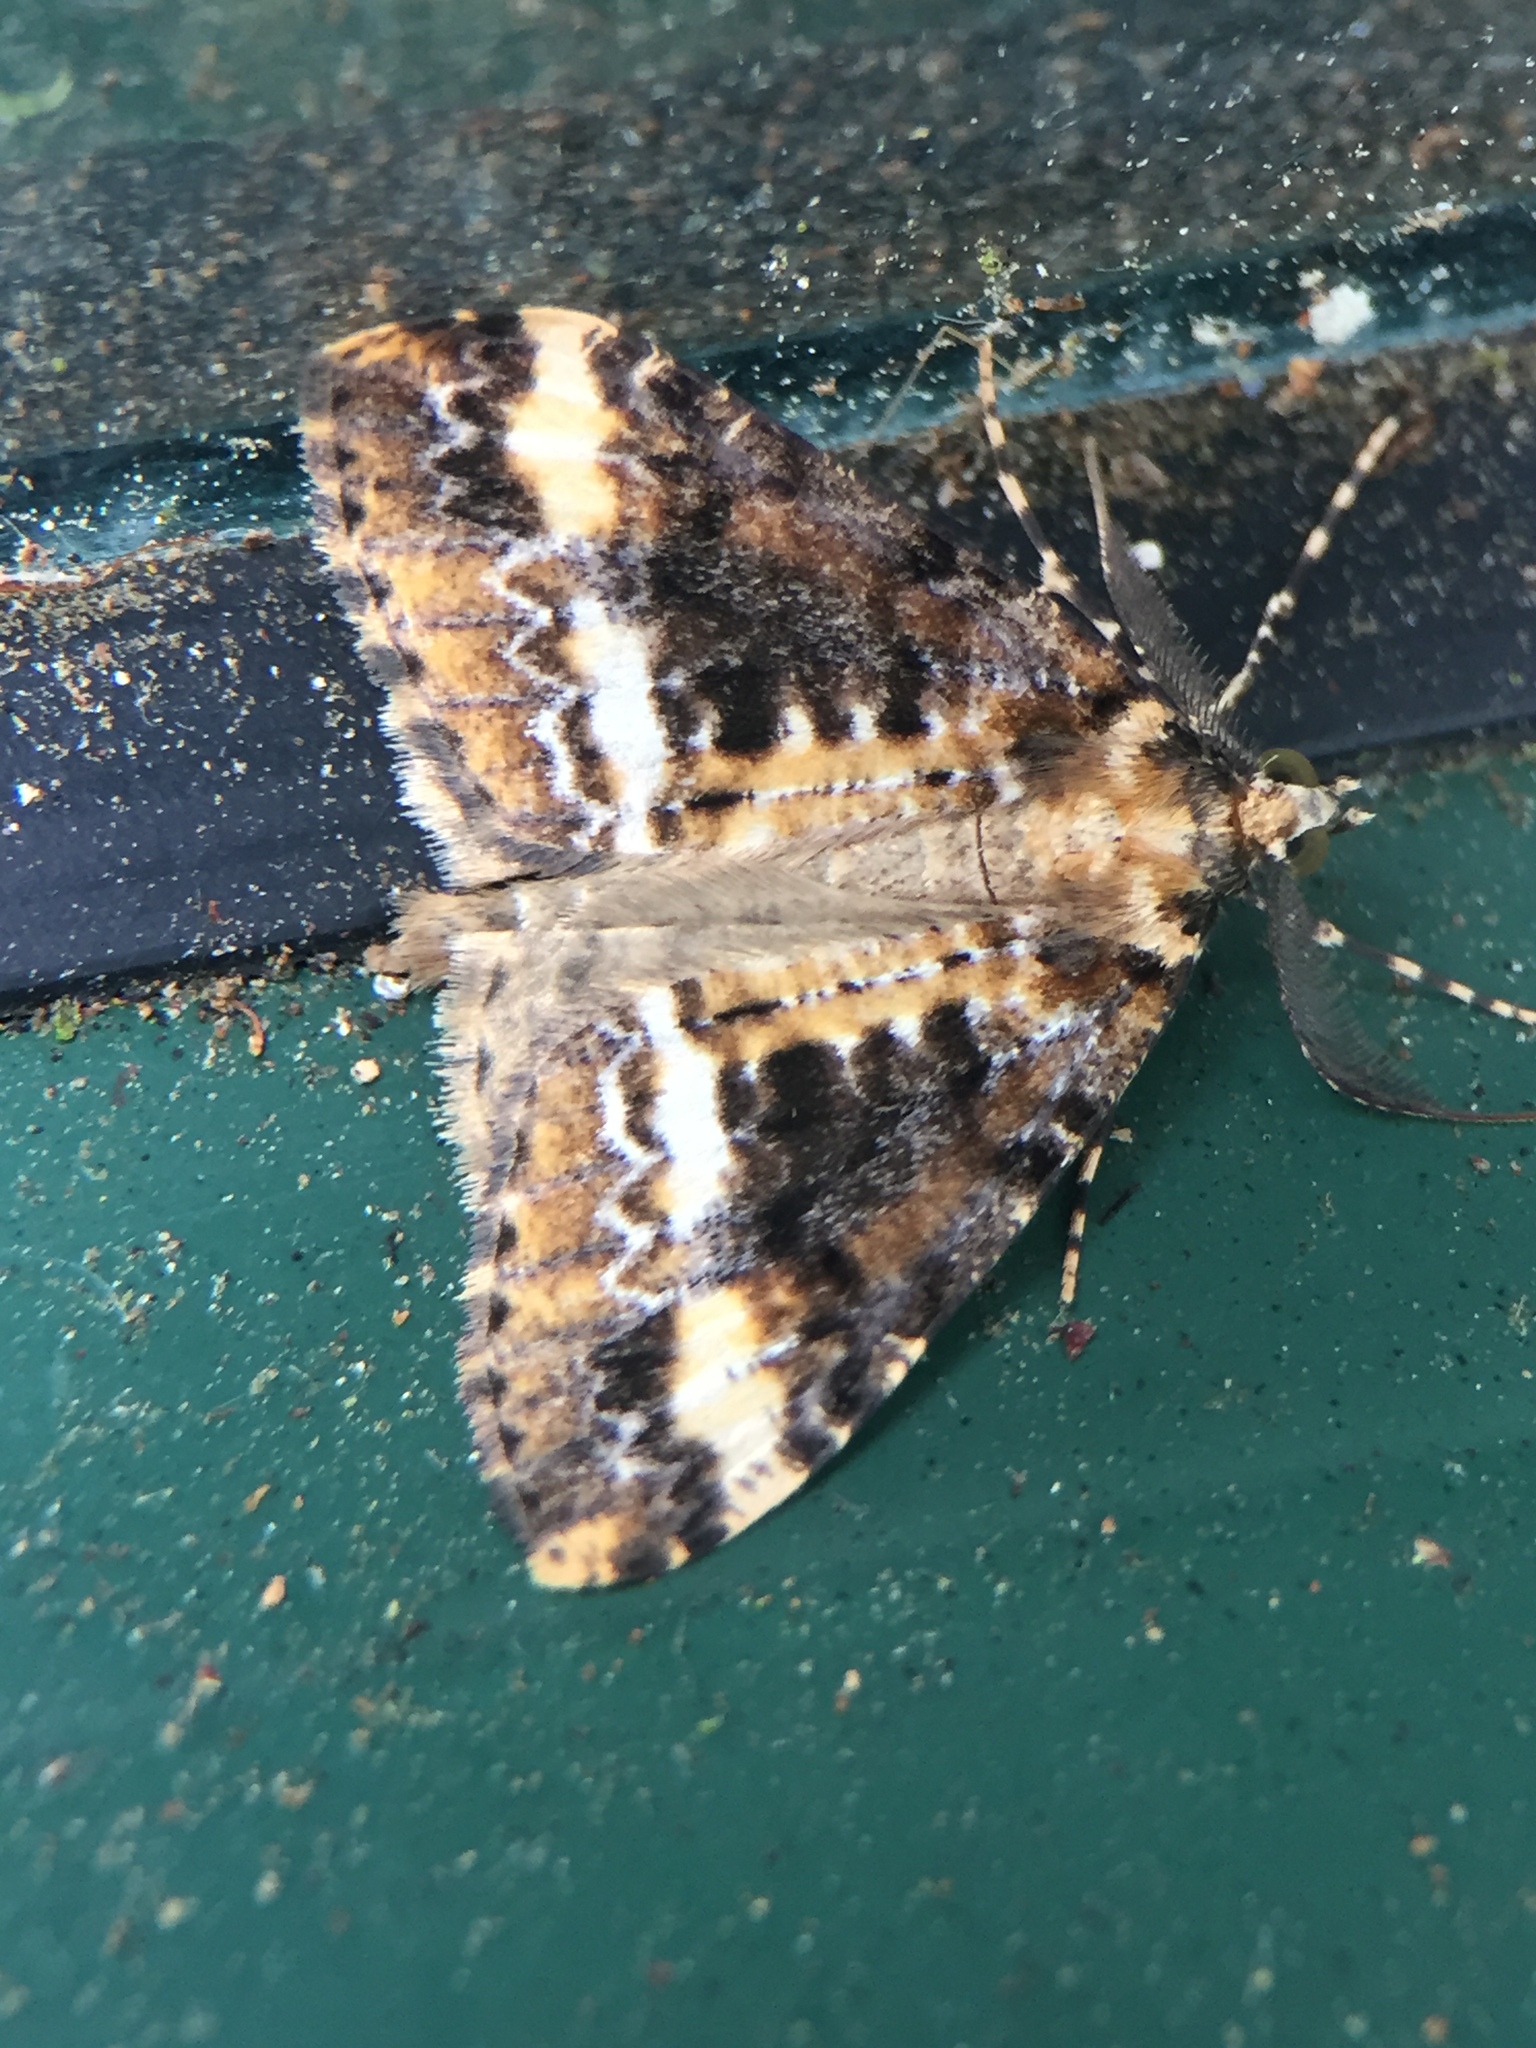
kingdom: Animalia
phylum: Arthropoda
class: Insecta
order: Lepidoptera
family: Geometridae
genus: Pseudocoremia
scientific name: Pseudocoremia leucelaea
